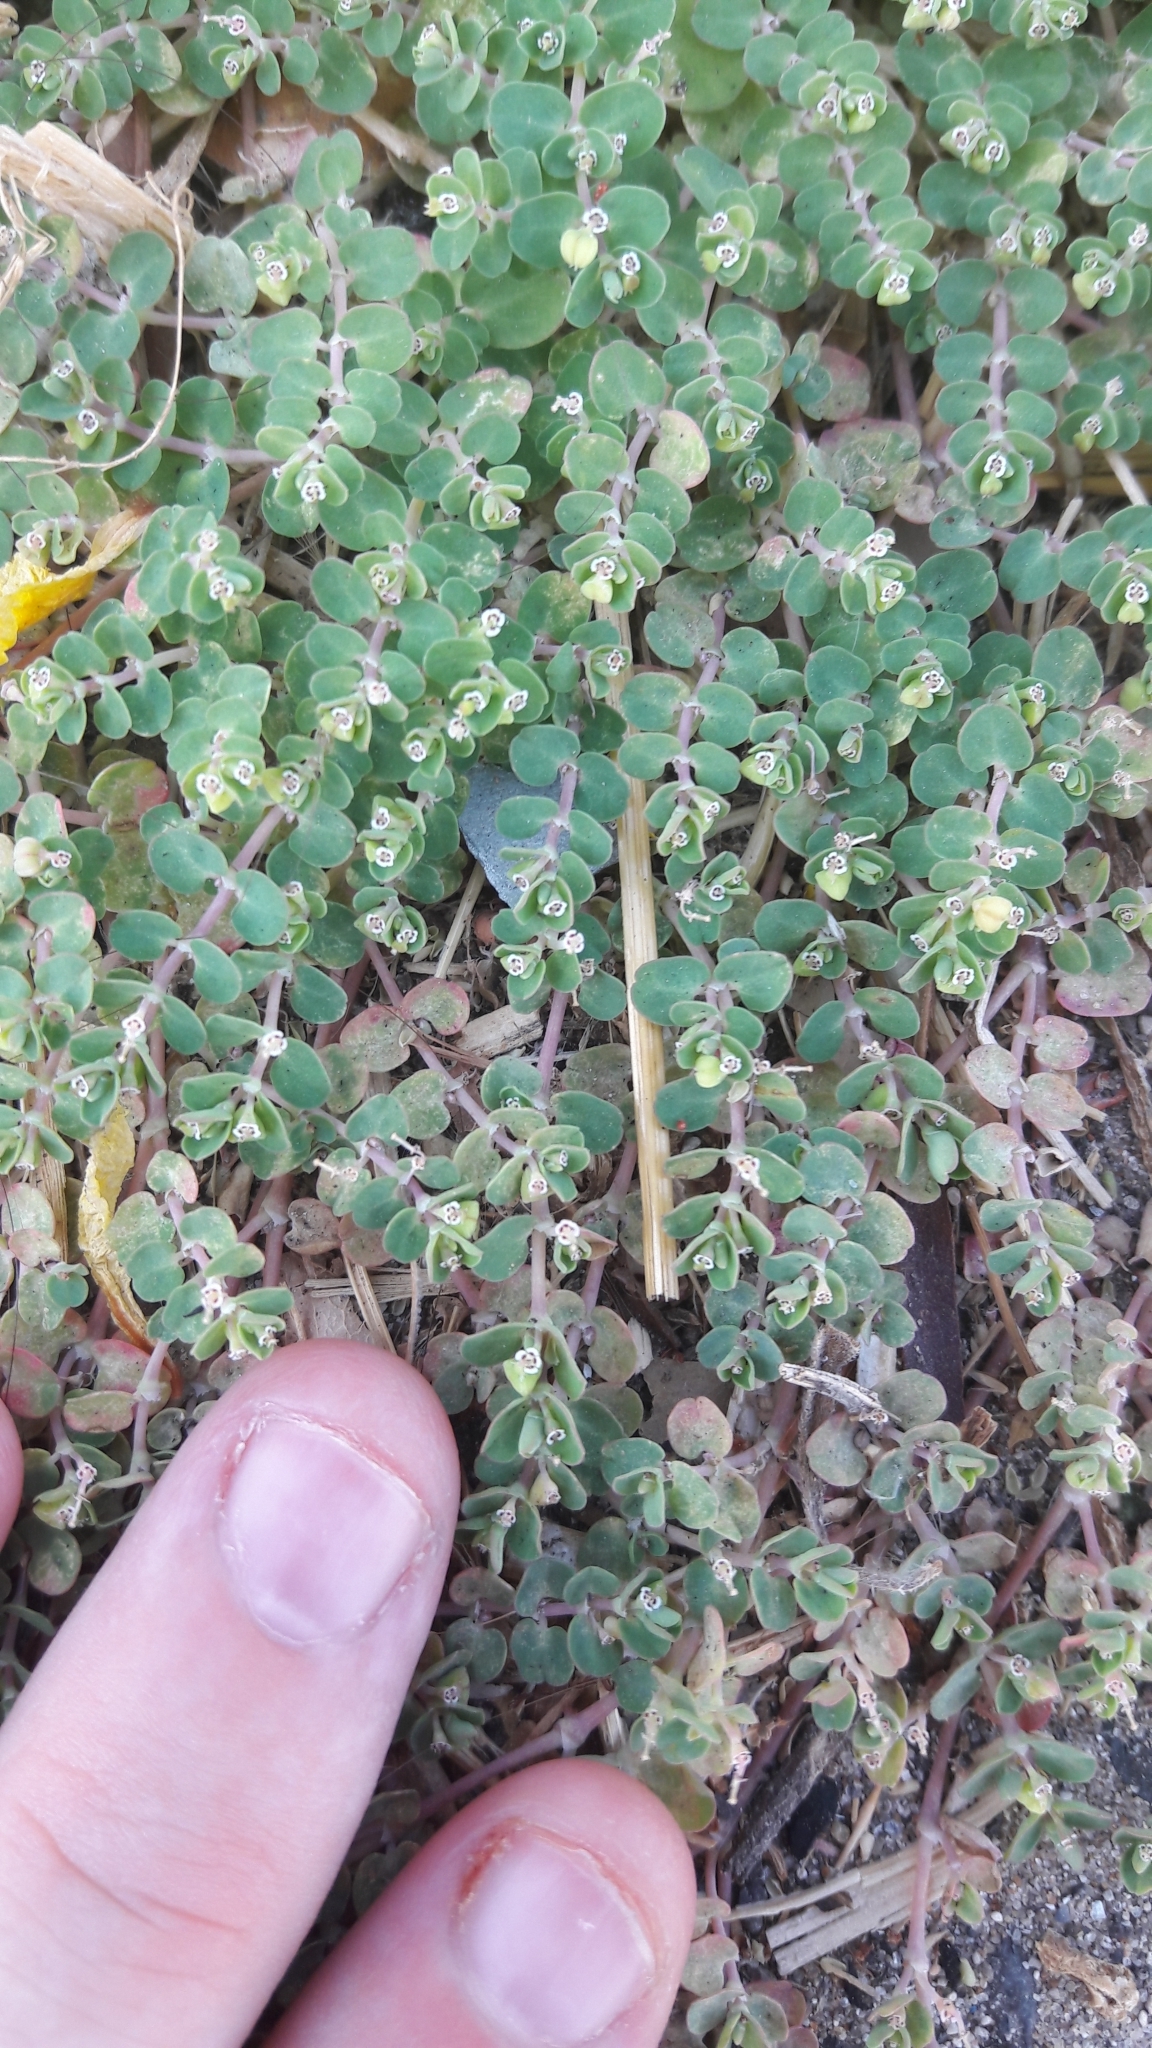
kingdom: Plantae
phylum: Tracheophyta
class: Magnoliopsida
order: Malpighiales
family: Euphorbiaceae
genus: Euphorbia
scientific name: Euphorbia serpens
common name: Matted sandmat
